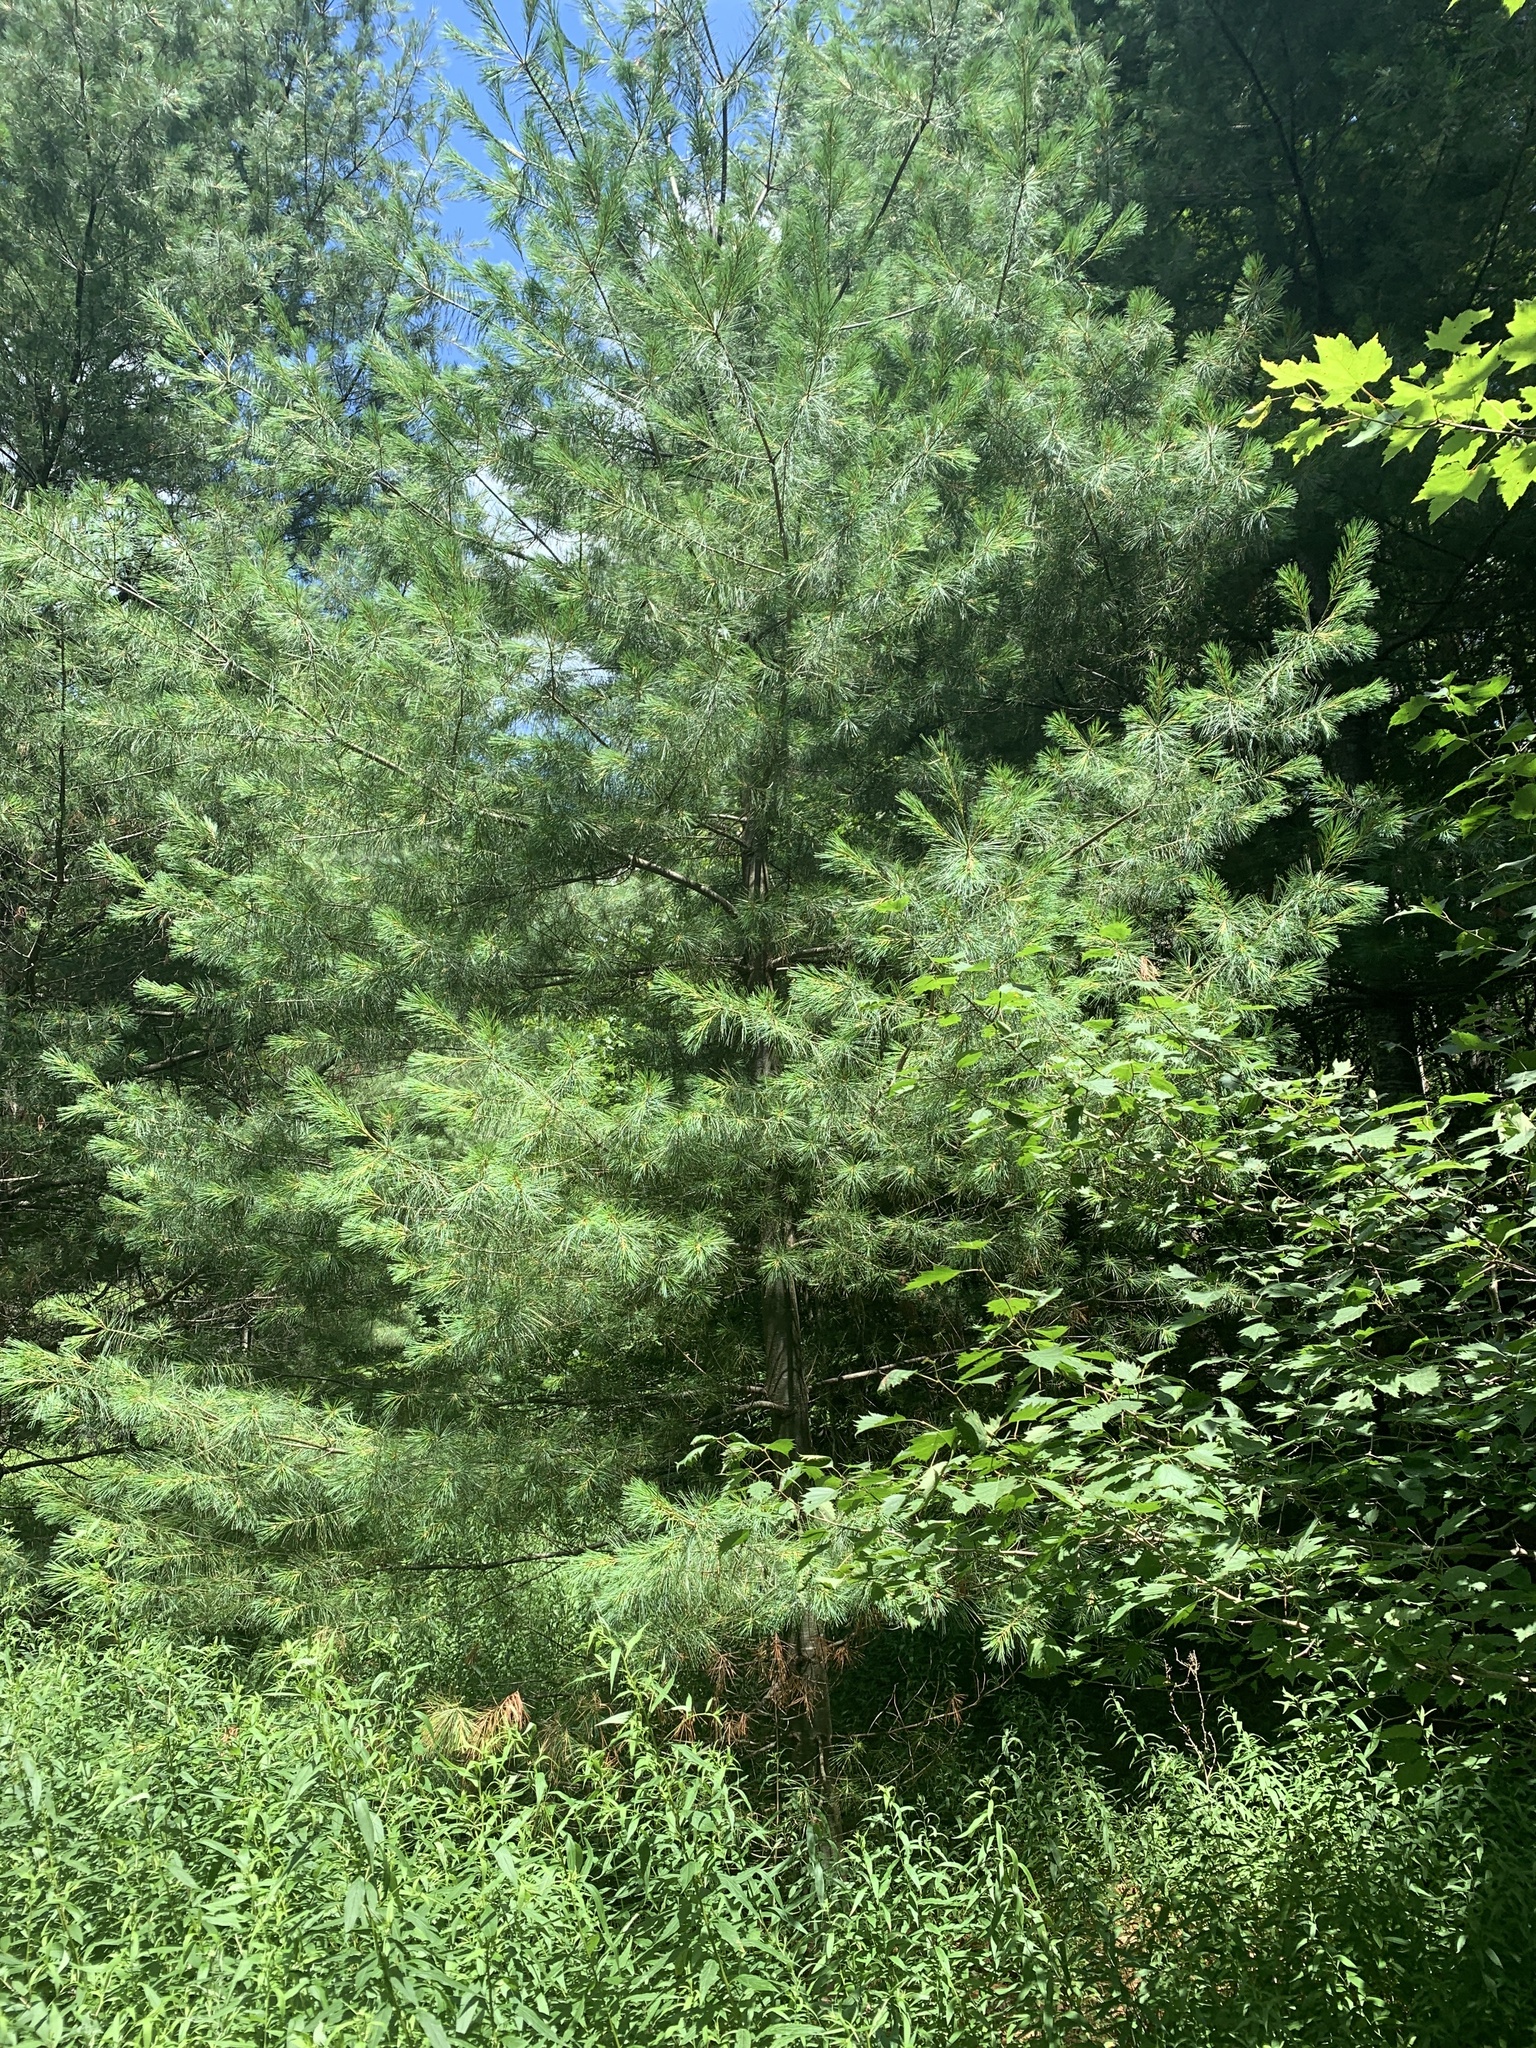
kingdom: Plantae
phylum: Tracheophyta
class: Pinopsida
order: Pinales
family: Pinaceae
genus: Pinus
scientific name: Pinus strobus
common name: Weymouth pine
